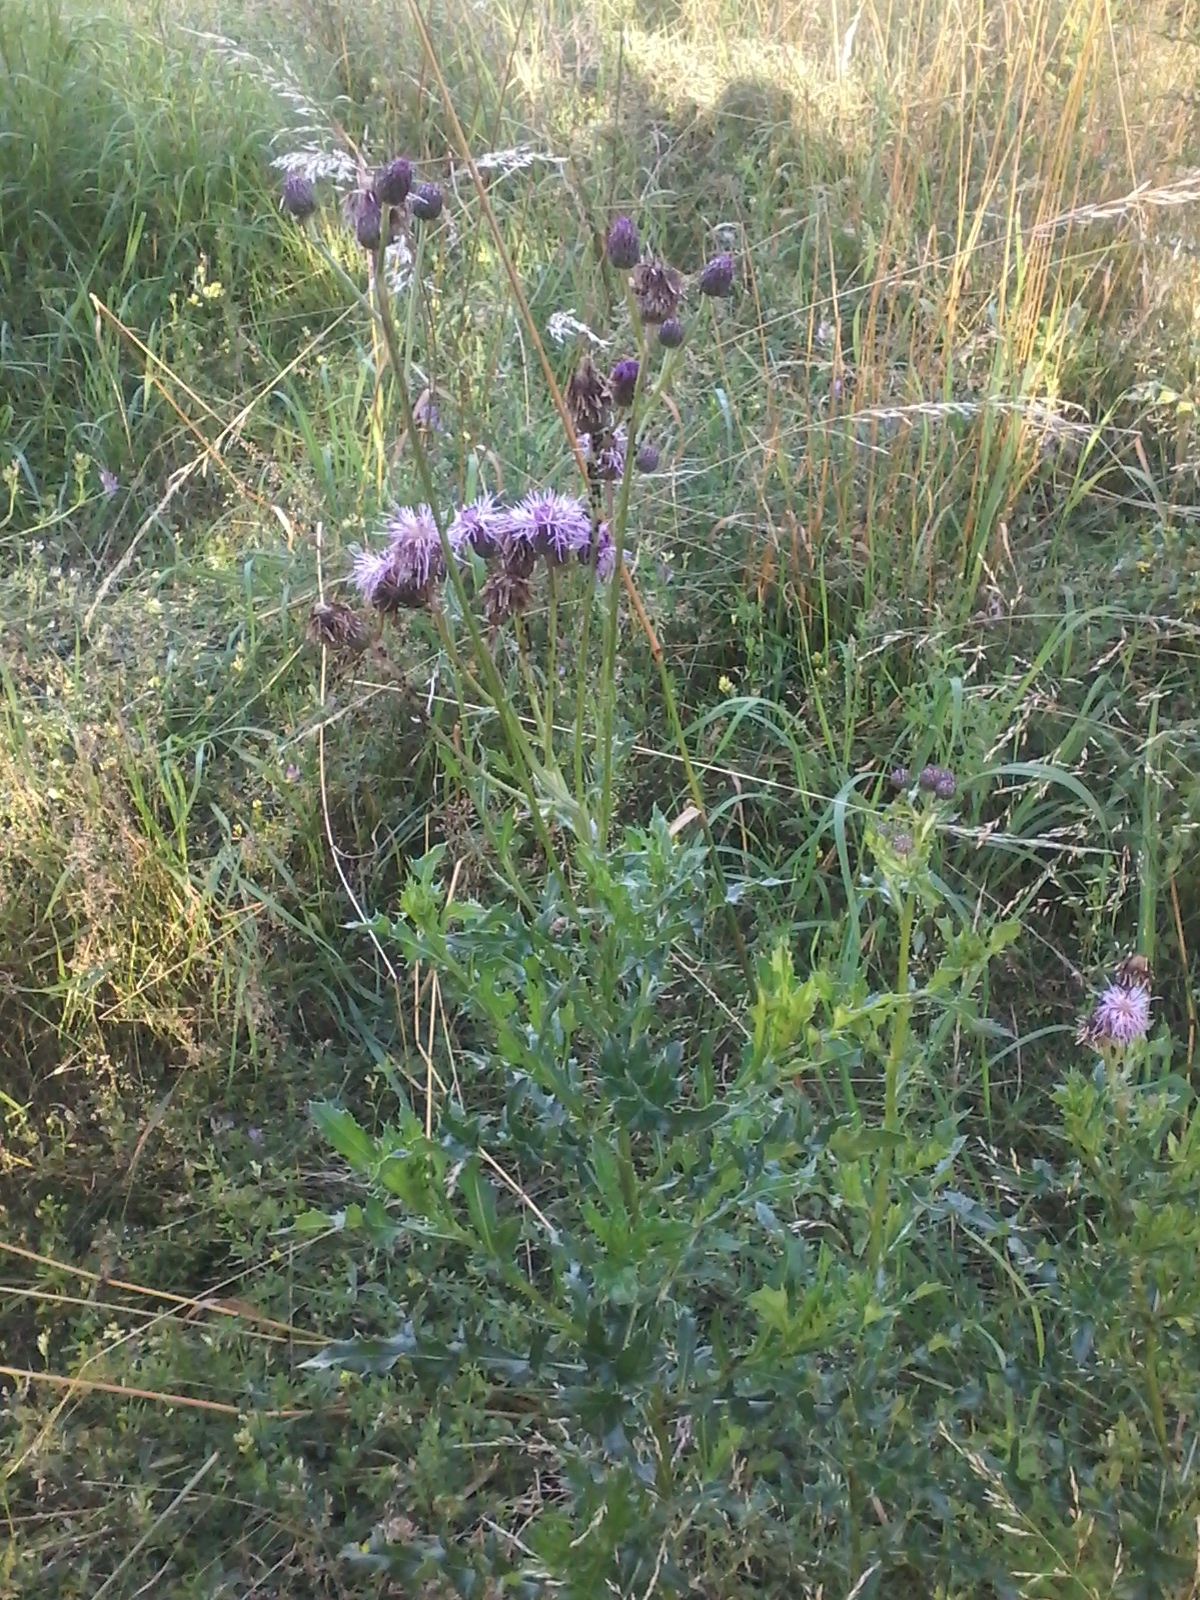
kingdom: Plantae
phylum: Tracheophyta
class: Magnoliopsida
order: Asterales
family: Asteraceae
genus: Cirsium
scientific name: Cirsium arvense
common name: Creeping thistle
